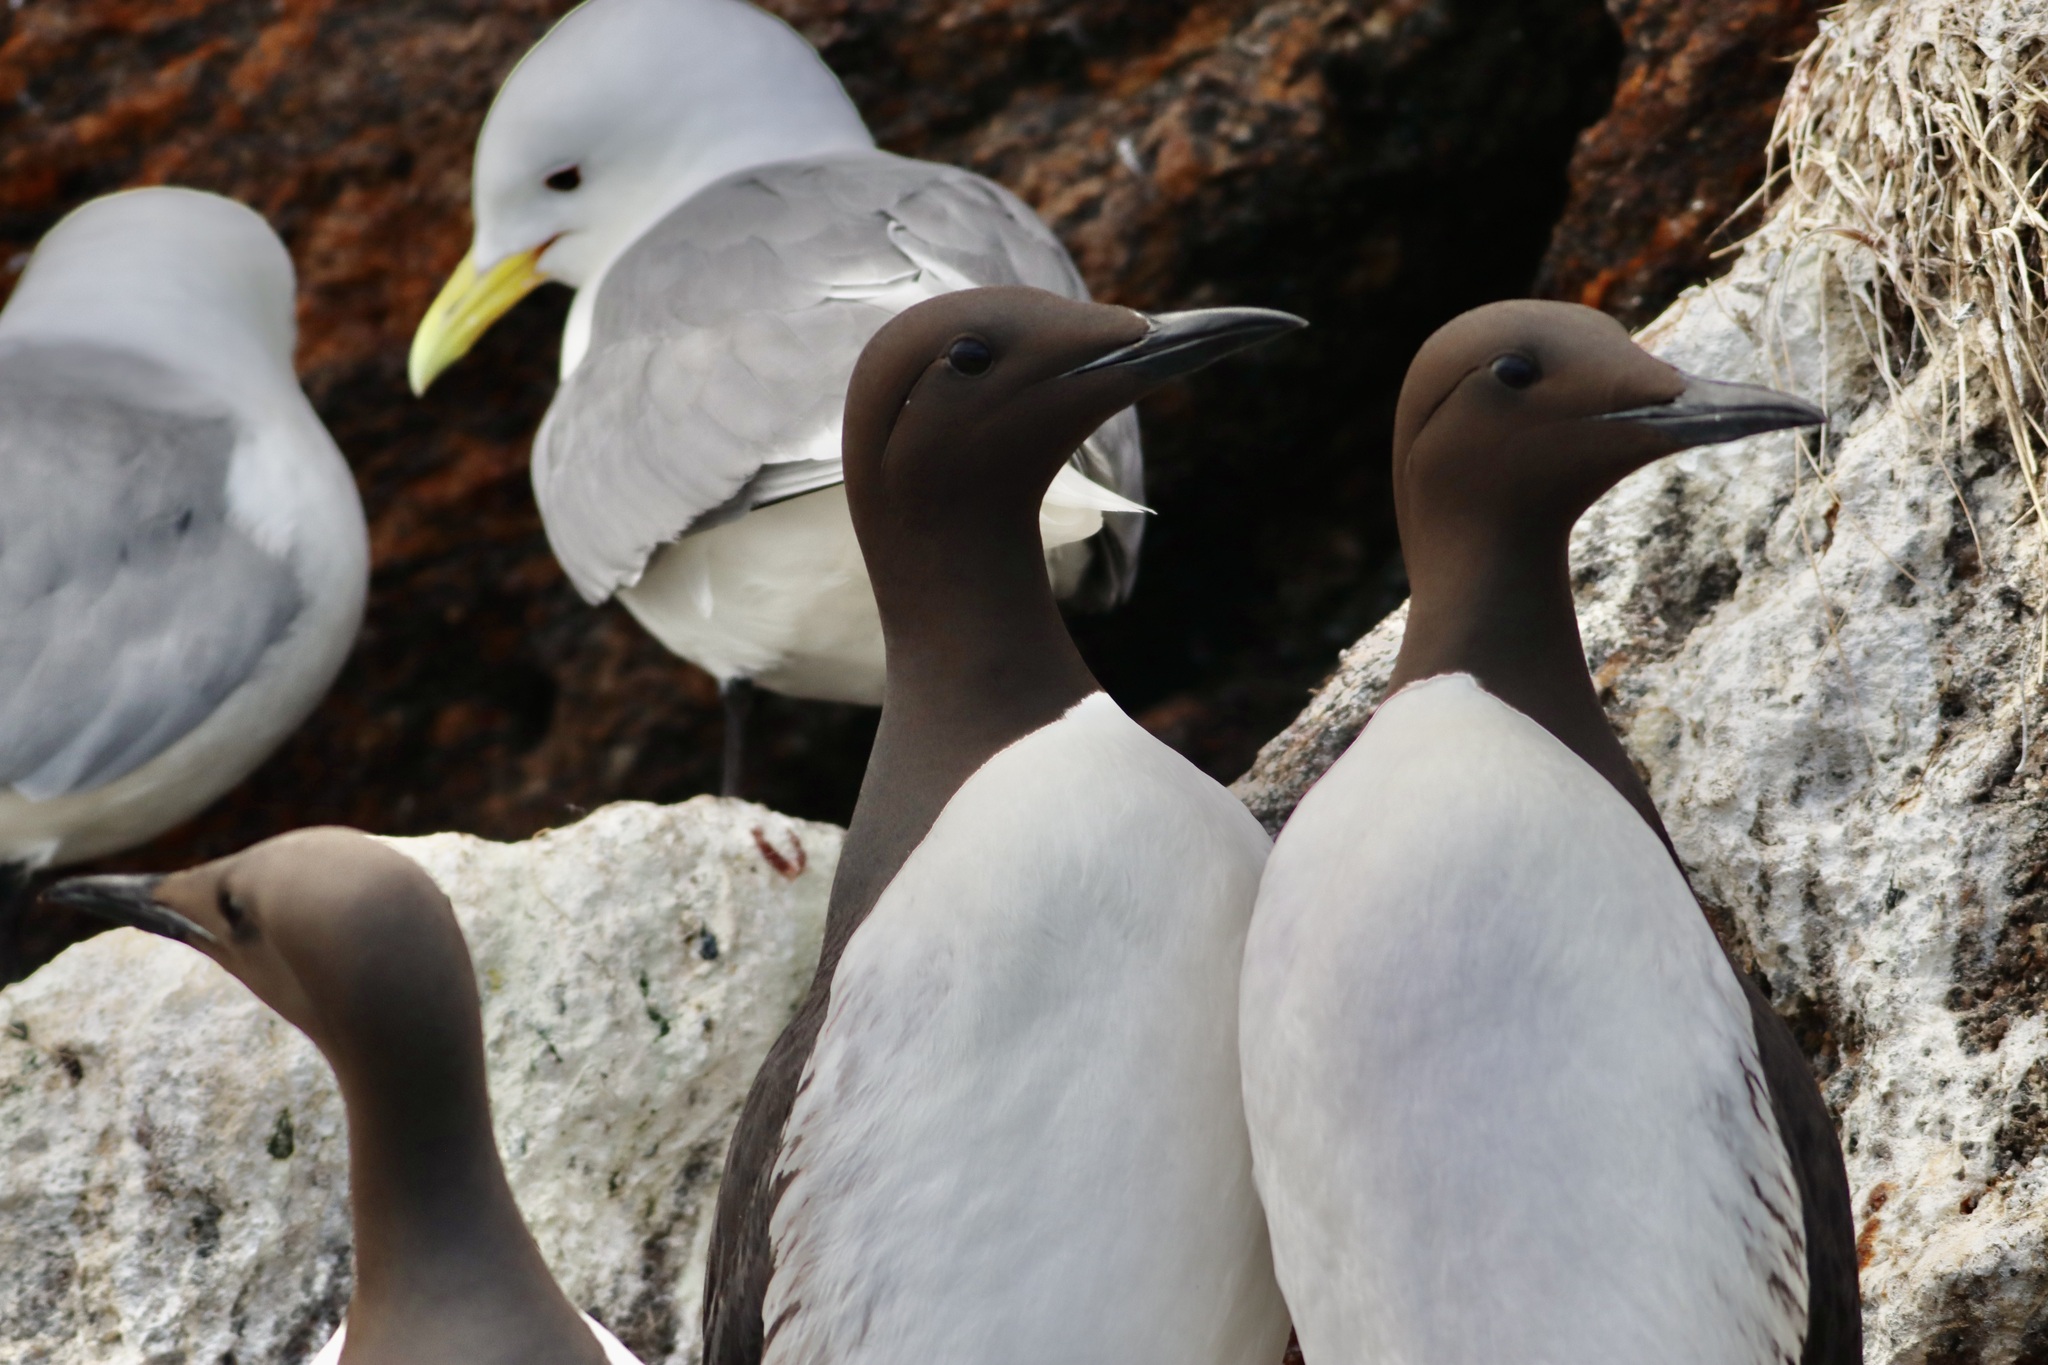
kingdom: Animalia
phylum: Chordata
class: Aves
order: Charadriiformes
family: Alcidae
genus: Uria
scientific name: Uria aalge
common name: Common murre
